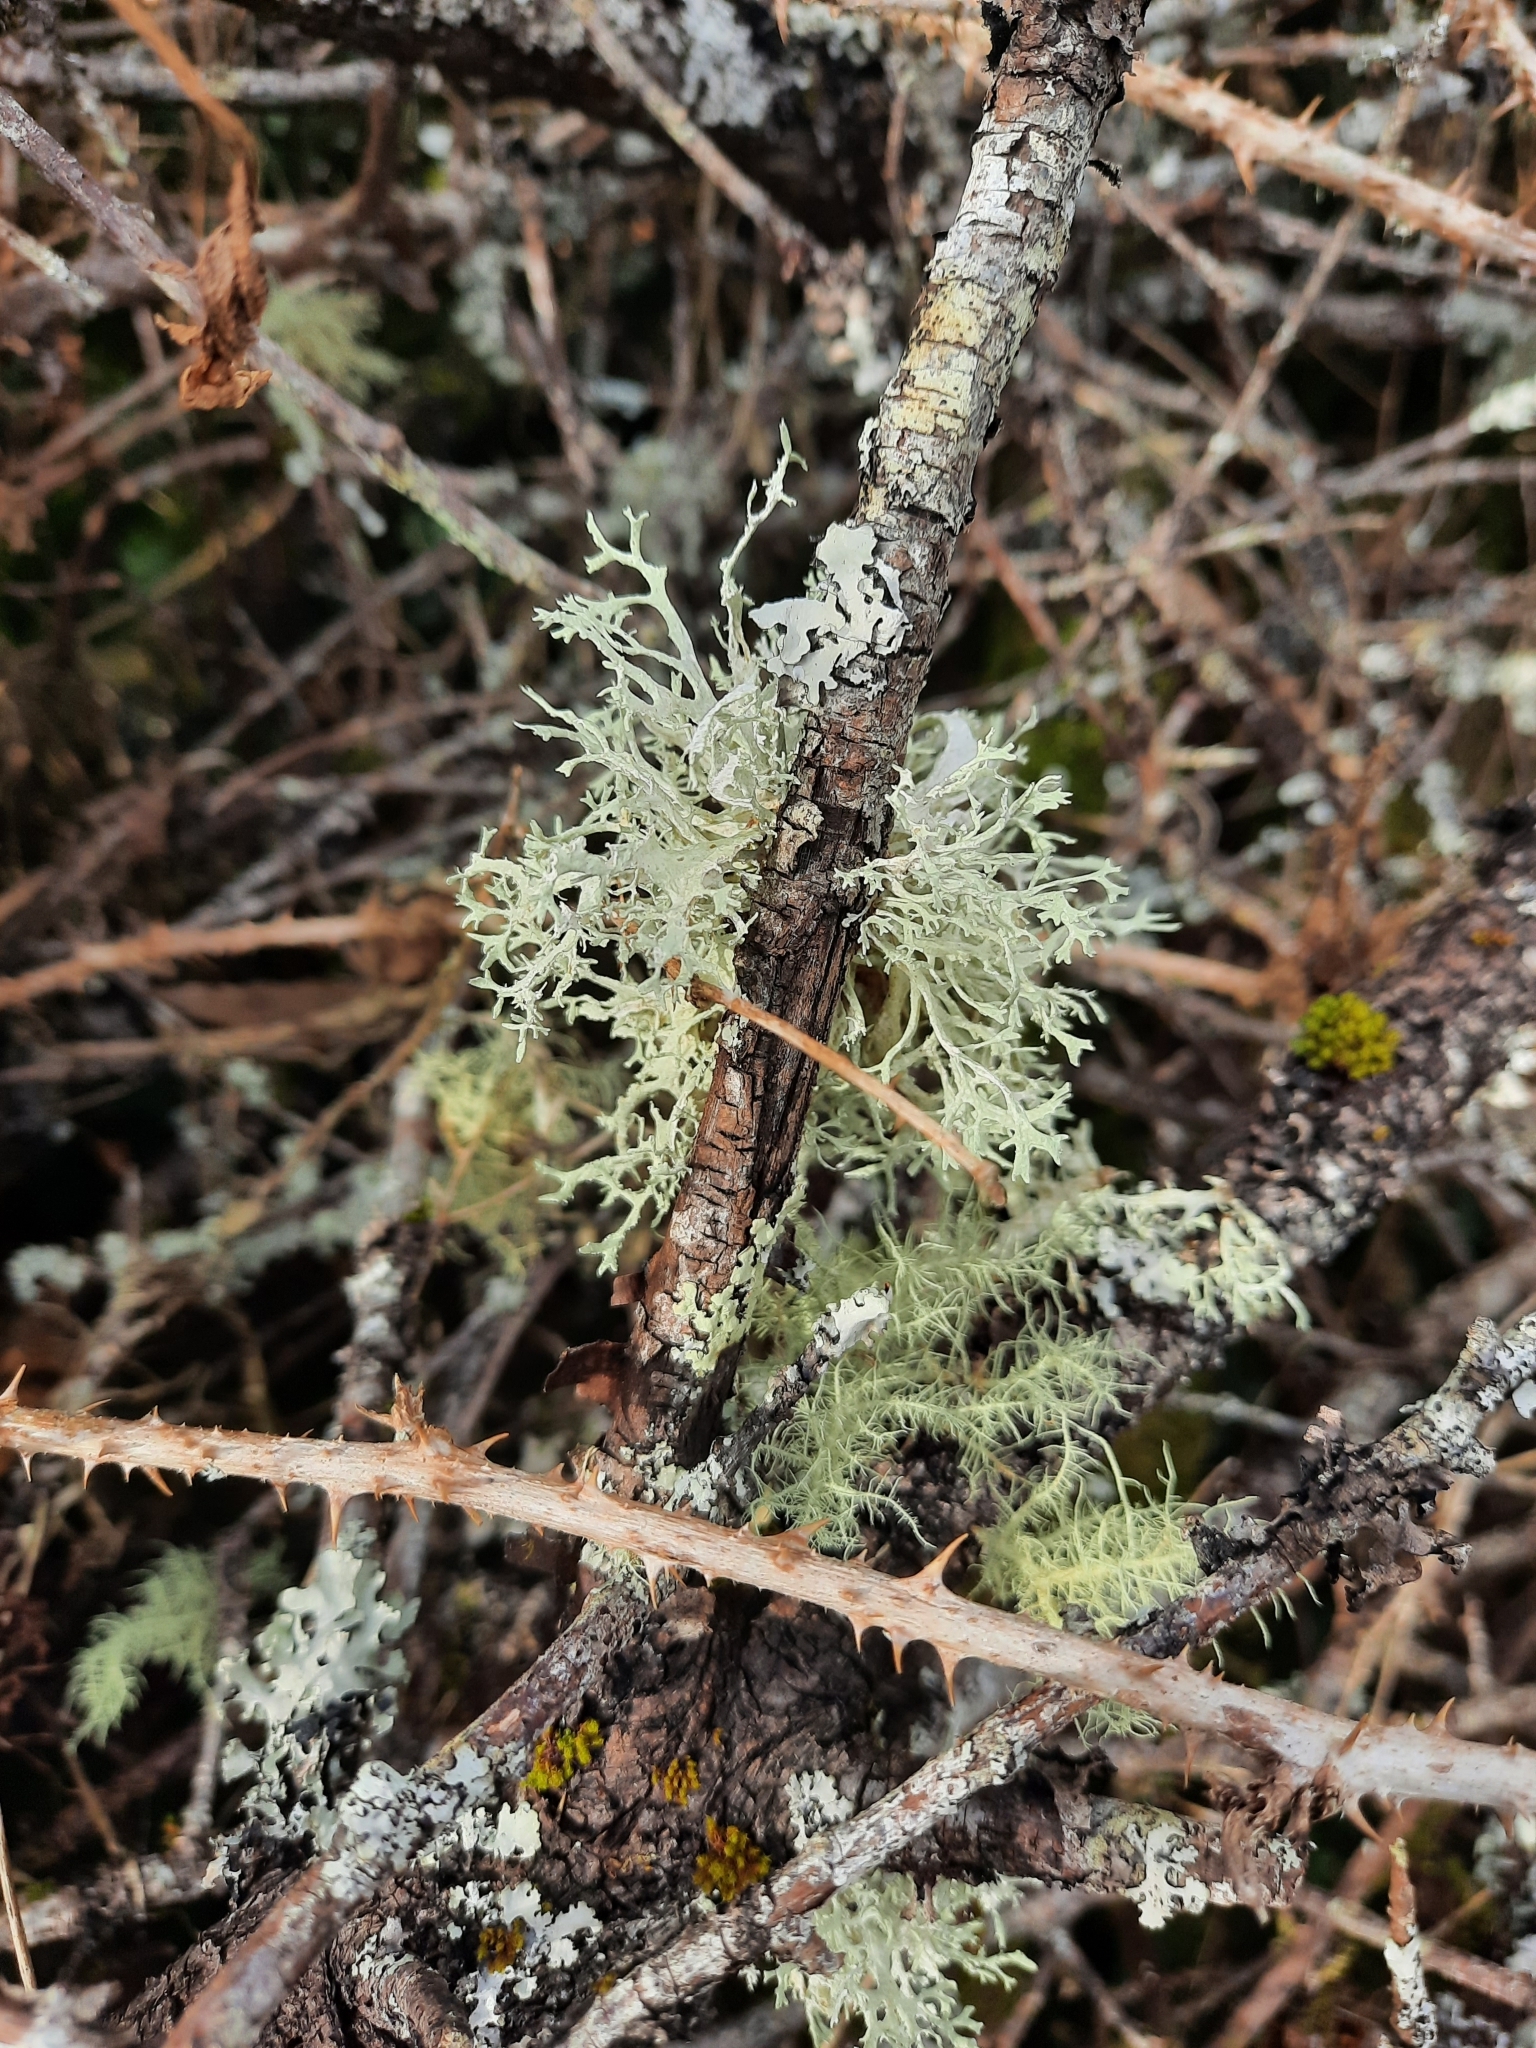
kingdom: Fungi
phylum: Ascomycota
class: Lecanoromycetes
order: Lecanorales
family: Parmeliaceae
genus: Evernia
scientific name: Evernia prunastri
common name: Oak moss
